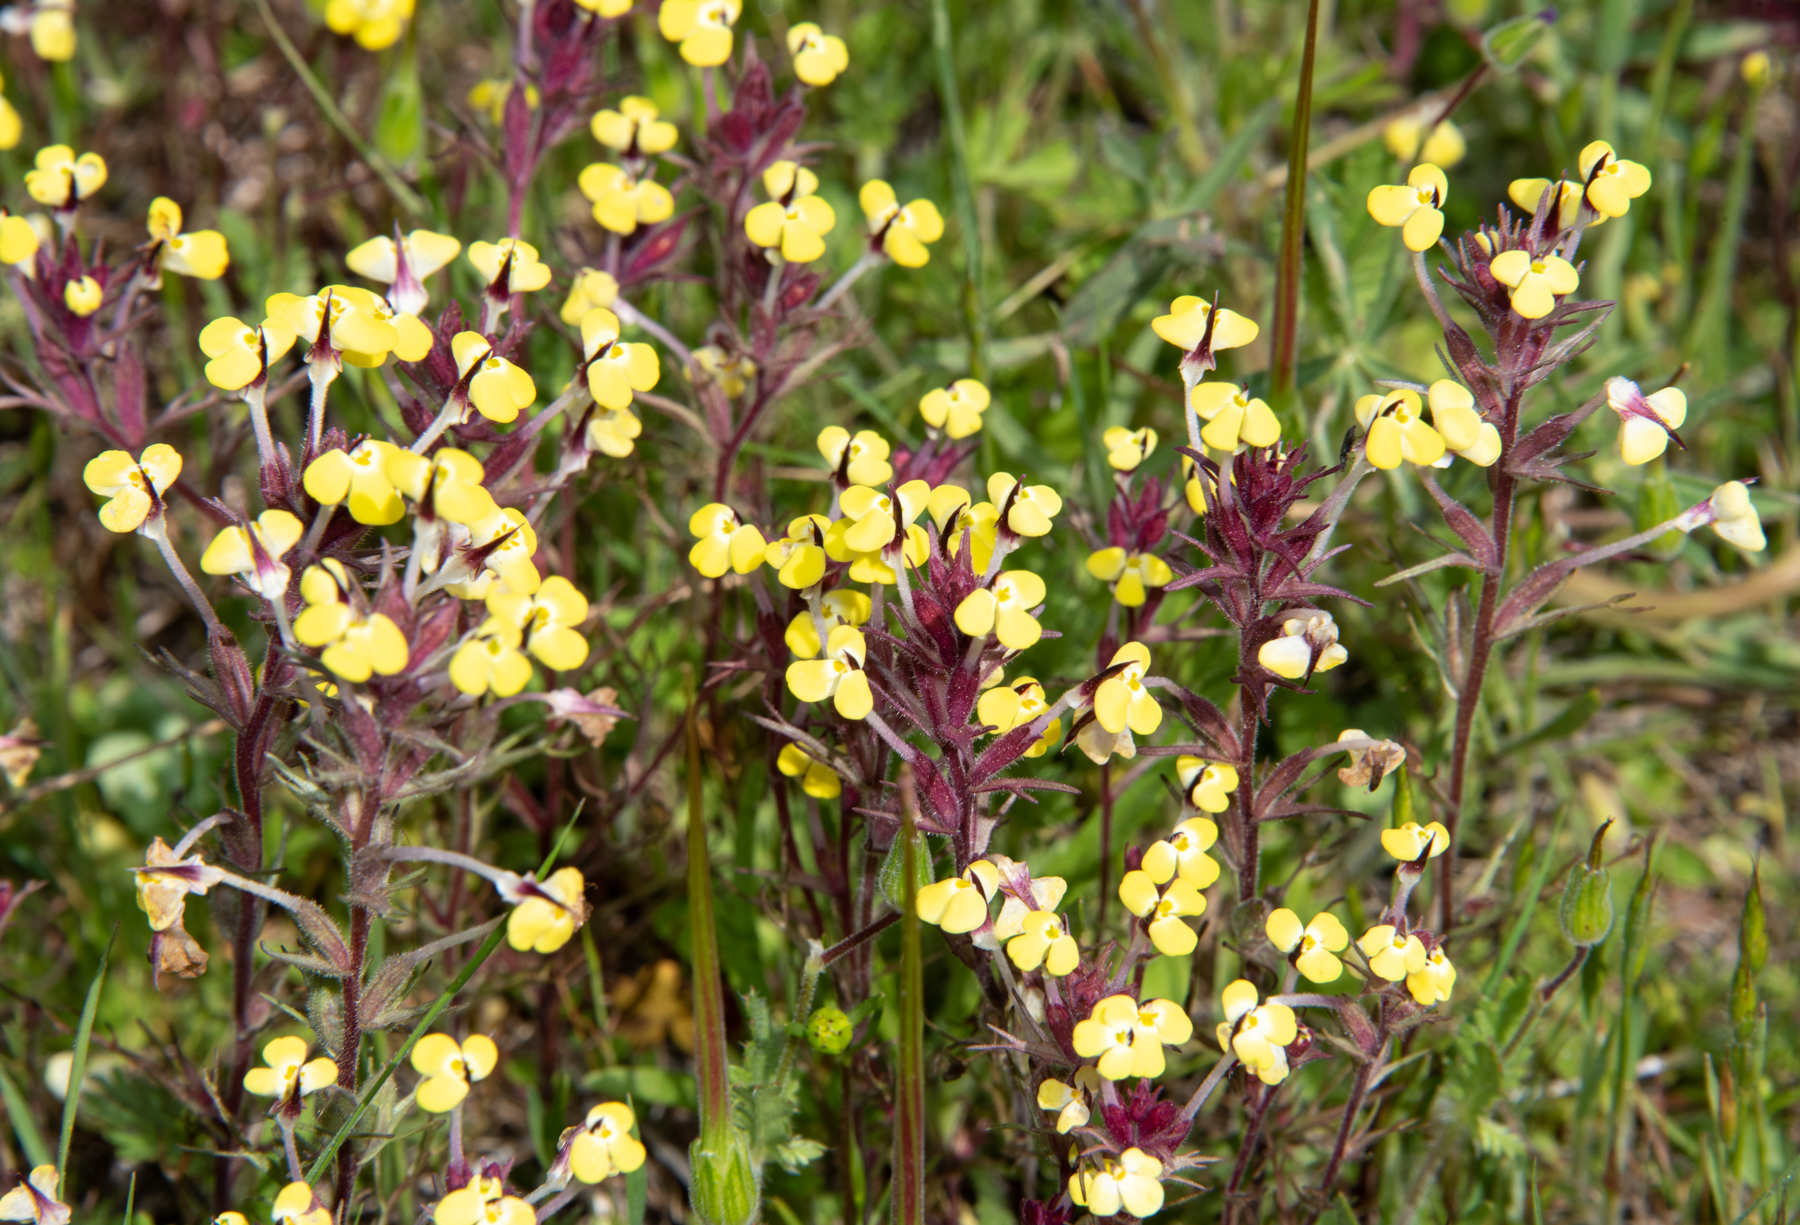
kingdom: Plantae
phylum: Tracheophyta
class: Magnoliopsida
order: Lamiales
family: Orobanchaceae
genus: Triphysaria
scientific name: Triphysaria eriantha
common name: Johnny-tuck
